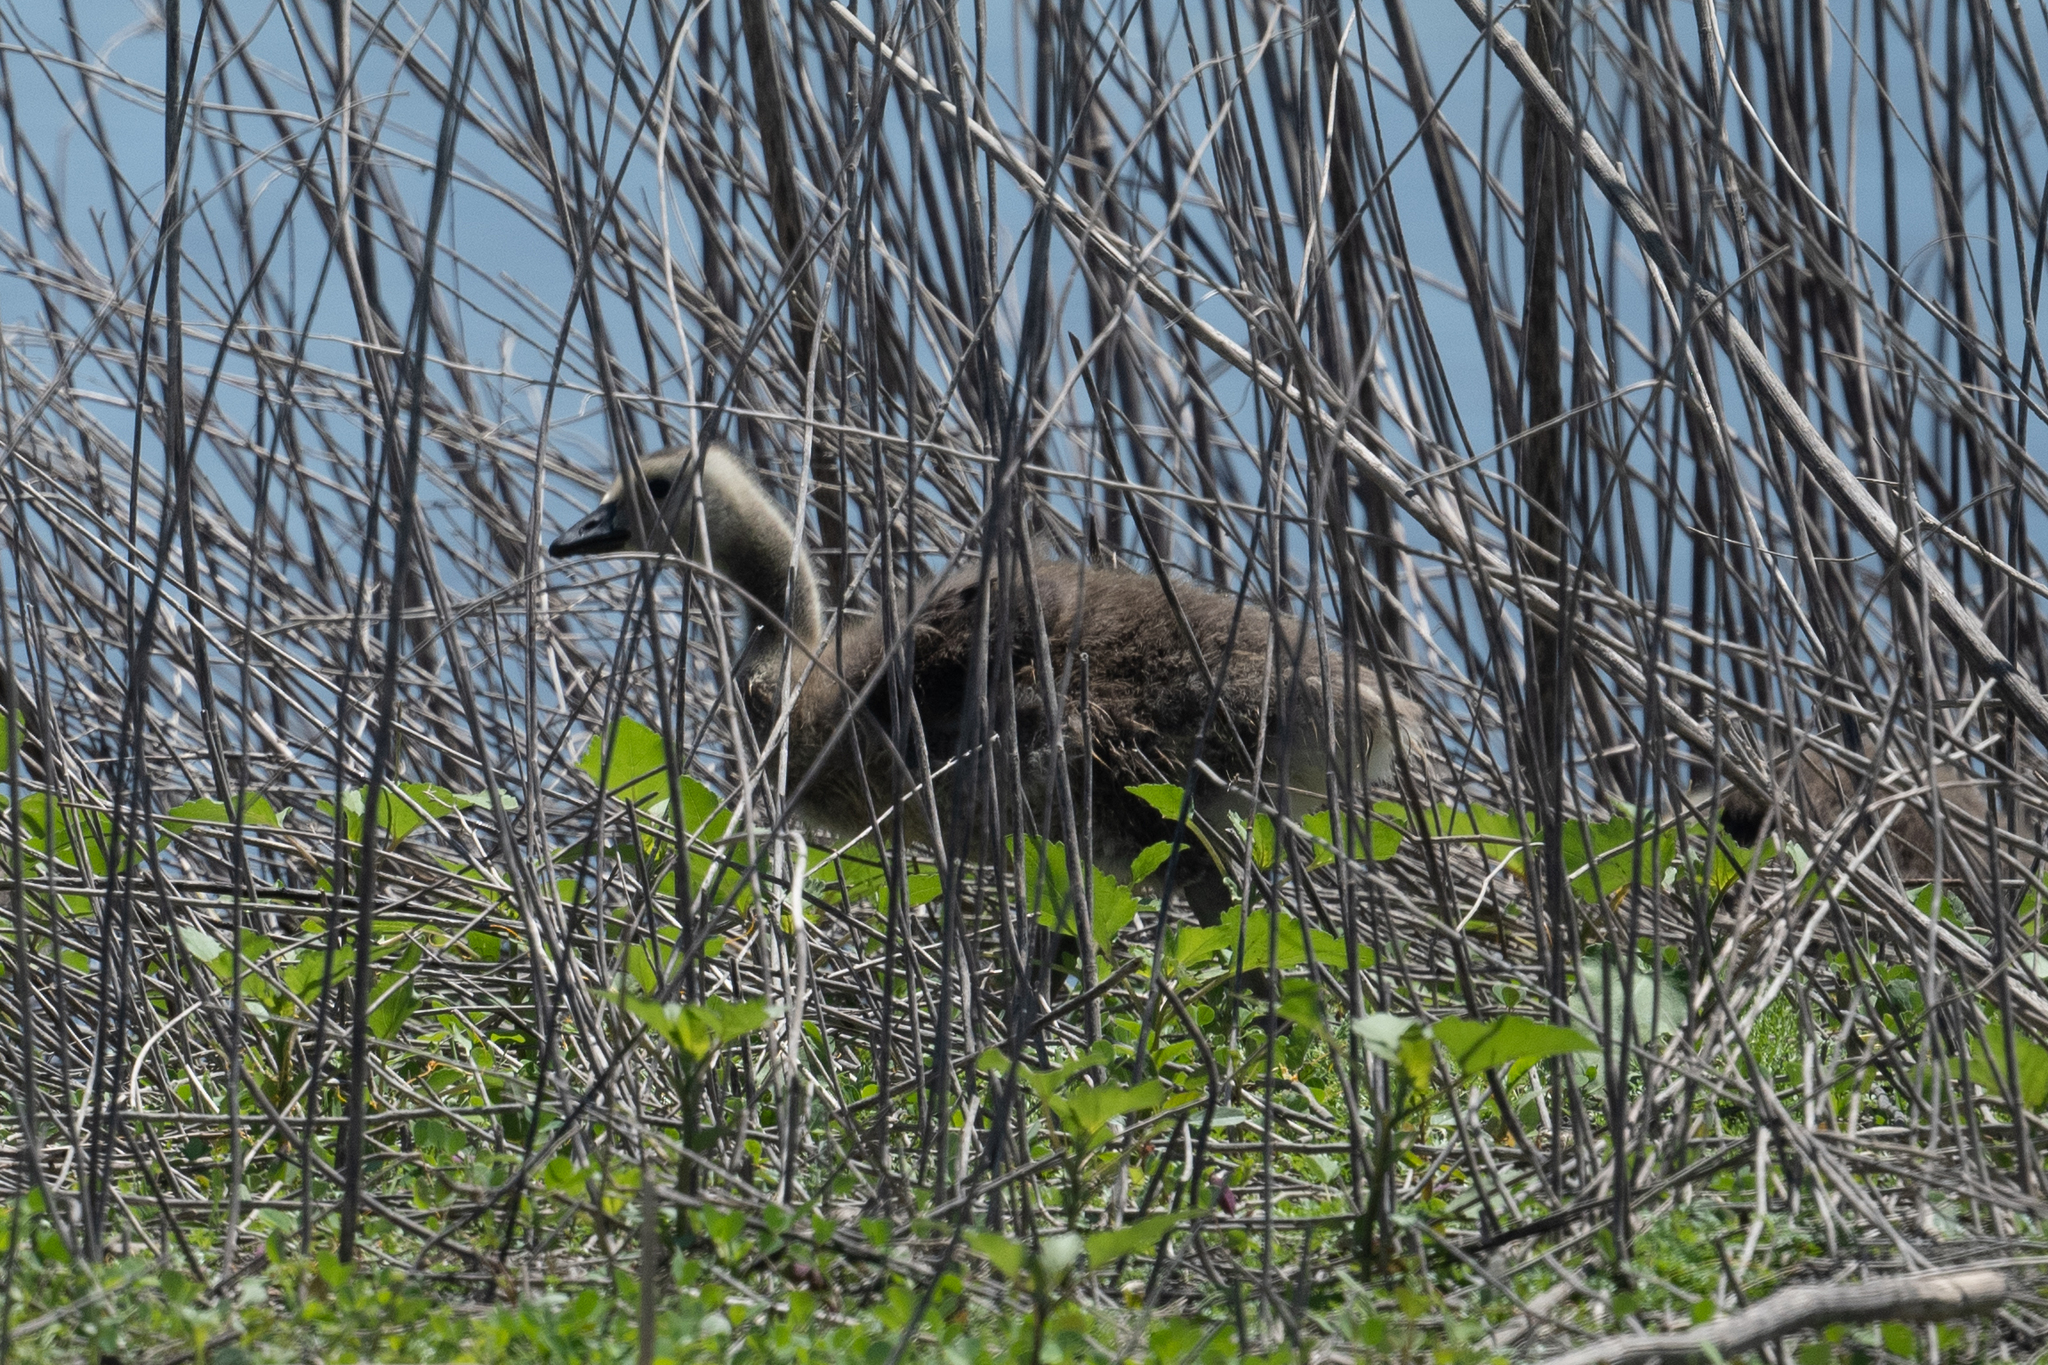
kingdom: Animalia
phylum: Chordata
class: Aves
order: Anseriformes
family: Anatidae
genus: Branta
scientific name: Branta canadensis
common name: Canada goose
